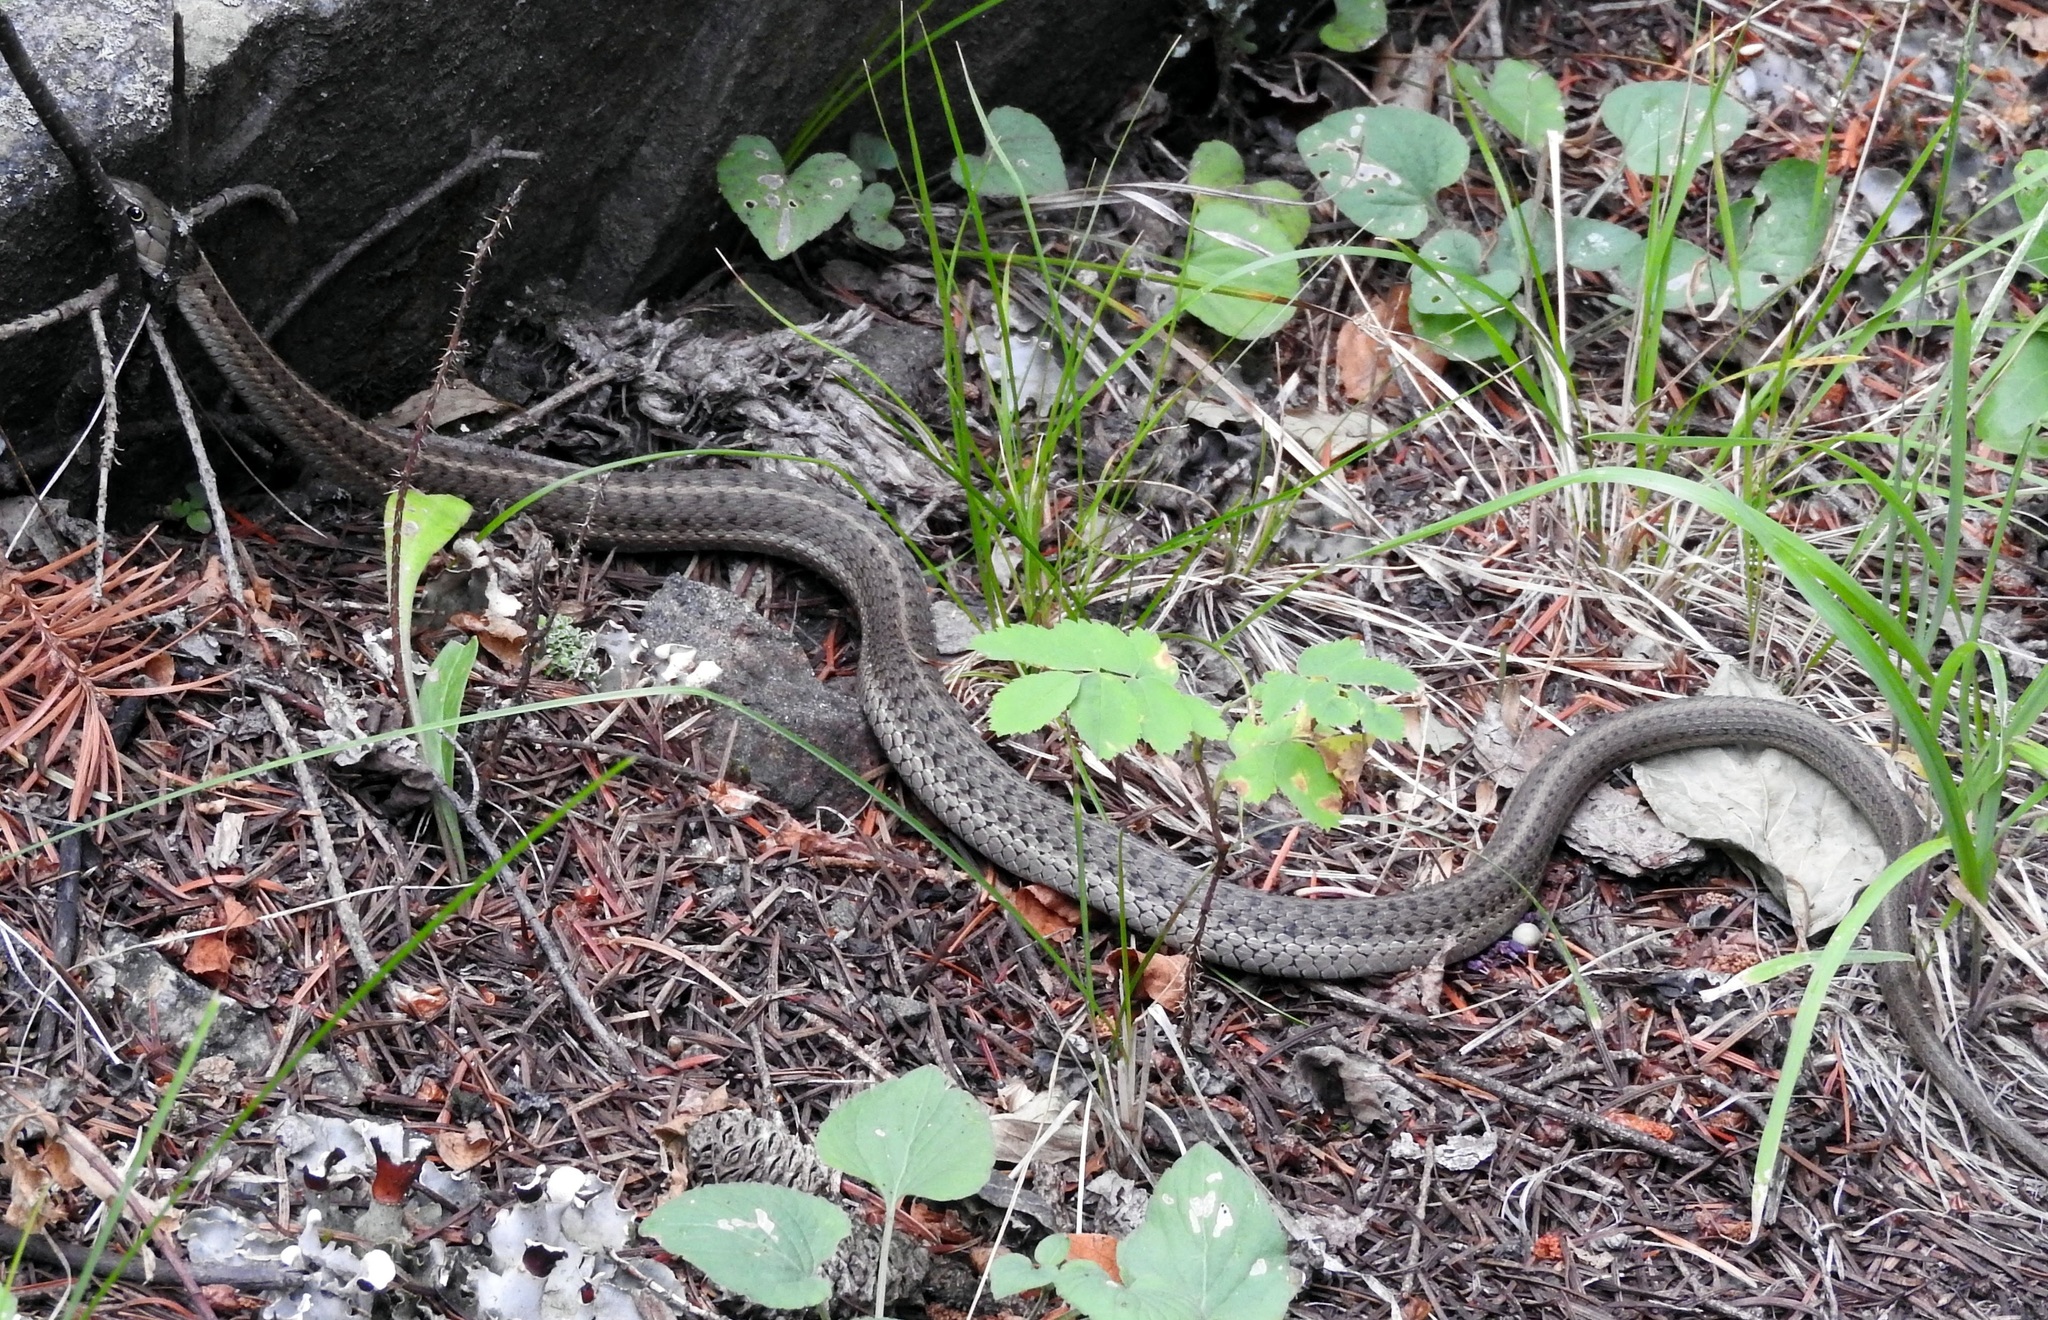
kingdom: Animalia
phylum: Chordata
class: Squamata
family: Colubridae
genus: Thamnophis
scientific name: Thamnophis elegans
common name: Western terrestrial garter snake
